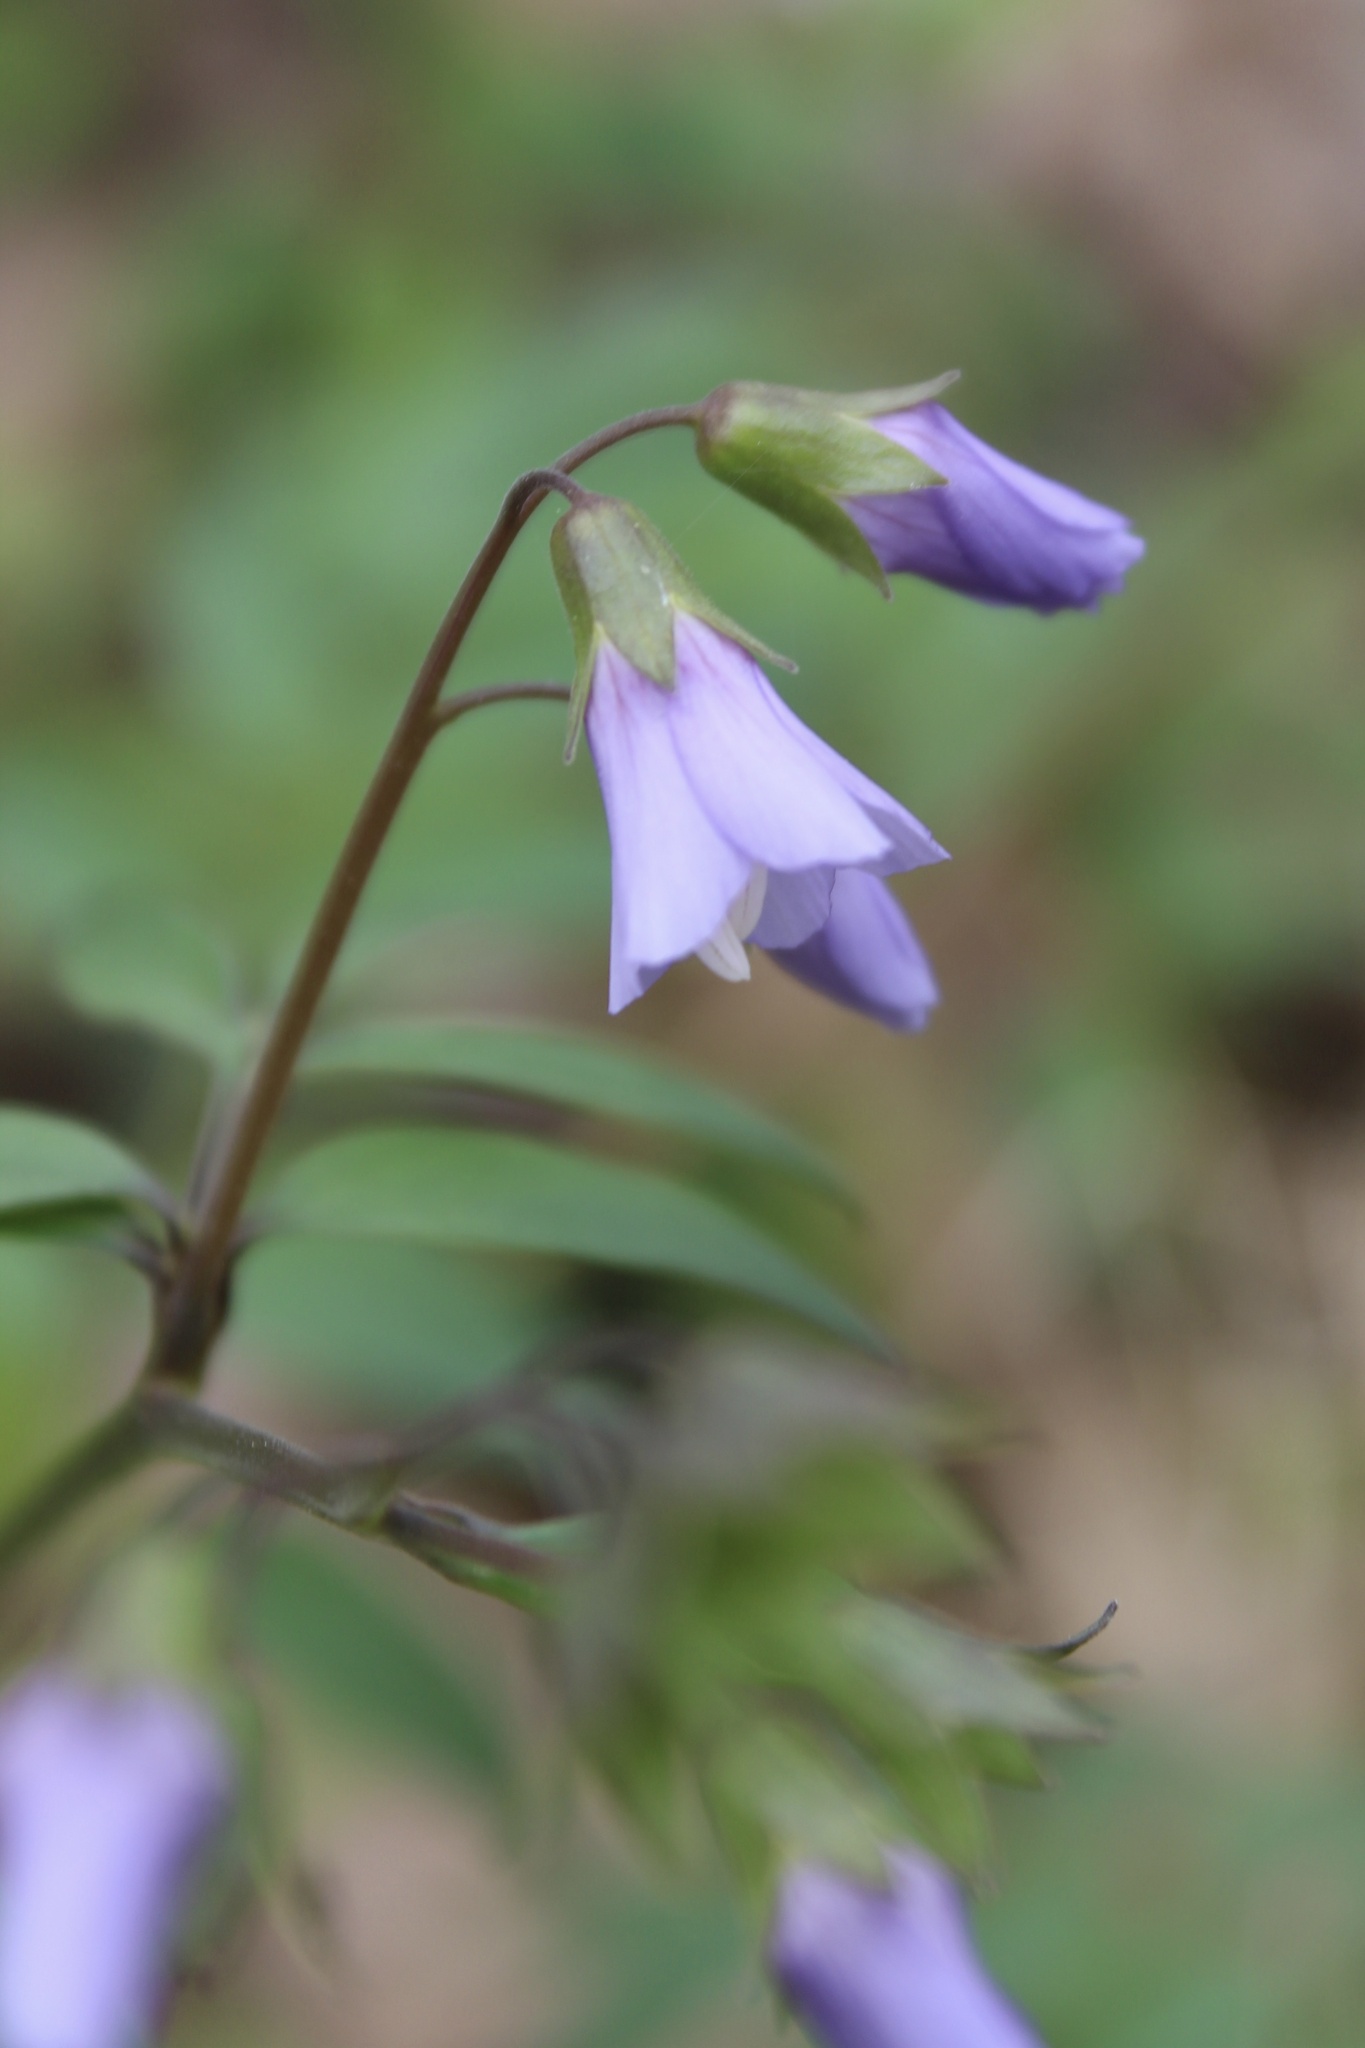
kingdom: Plantae
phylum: Tracheophyta
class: Magnoliopsida
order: Ericales
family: Polemoniaceae
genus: Polemonium
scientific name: Polemonium reptans
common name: Creeping jacob's-ladder
